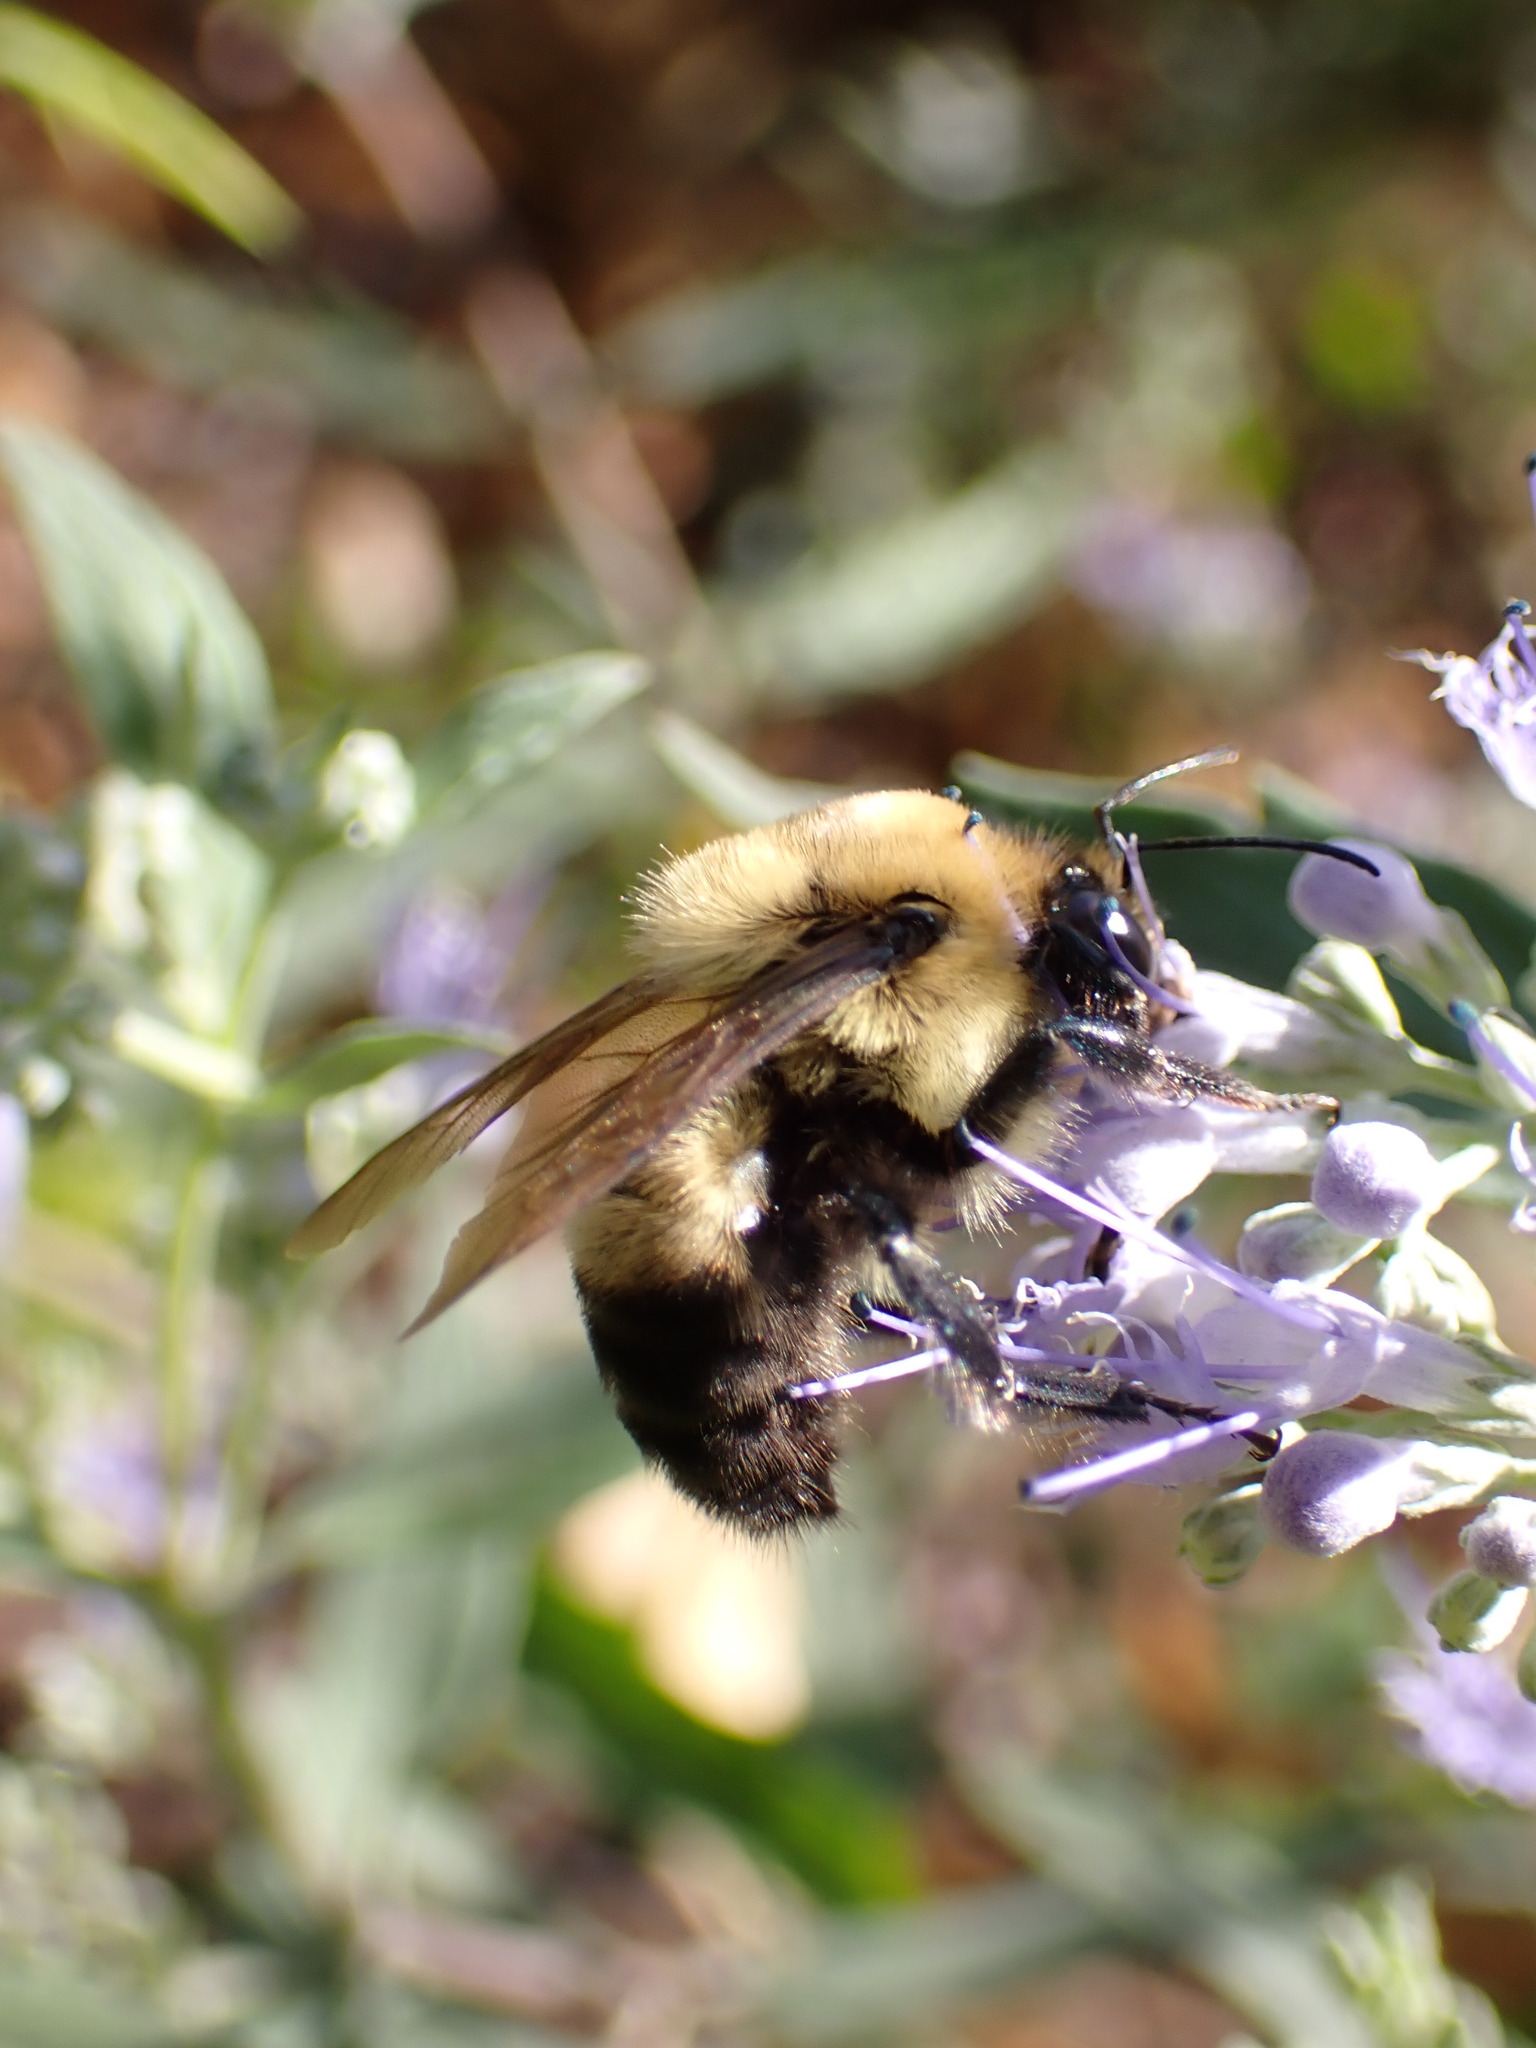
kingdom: Animalia
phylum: Arthropoda
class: Insecta
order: Hymenoptera
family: Apidae
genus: Bombus
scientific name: Bombus griseocollis
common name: Brown-belted bumble bee
